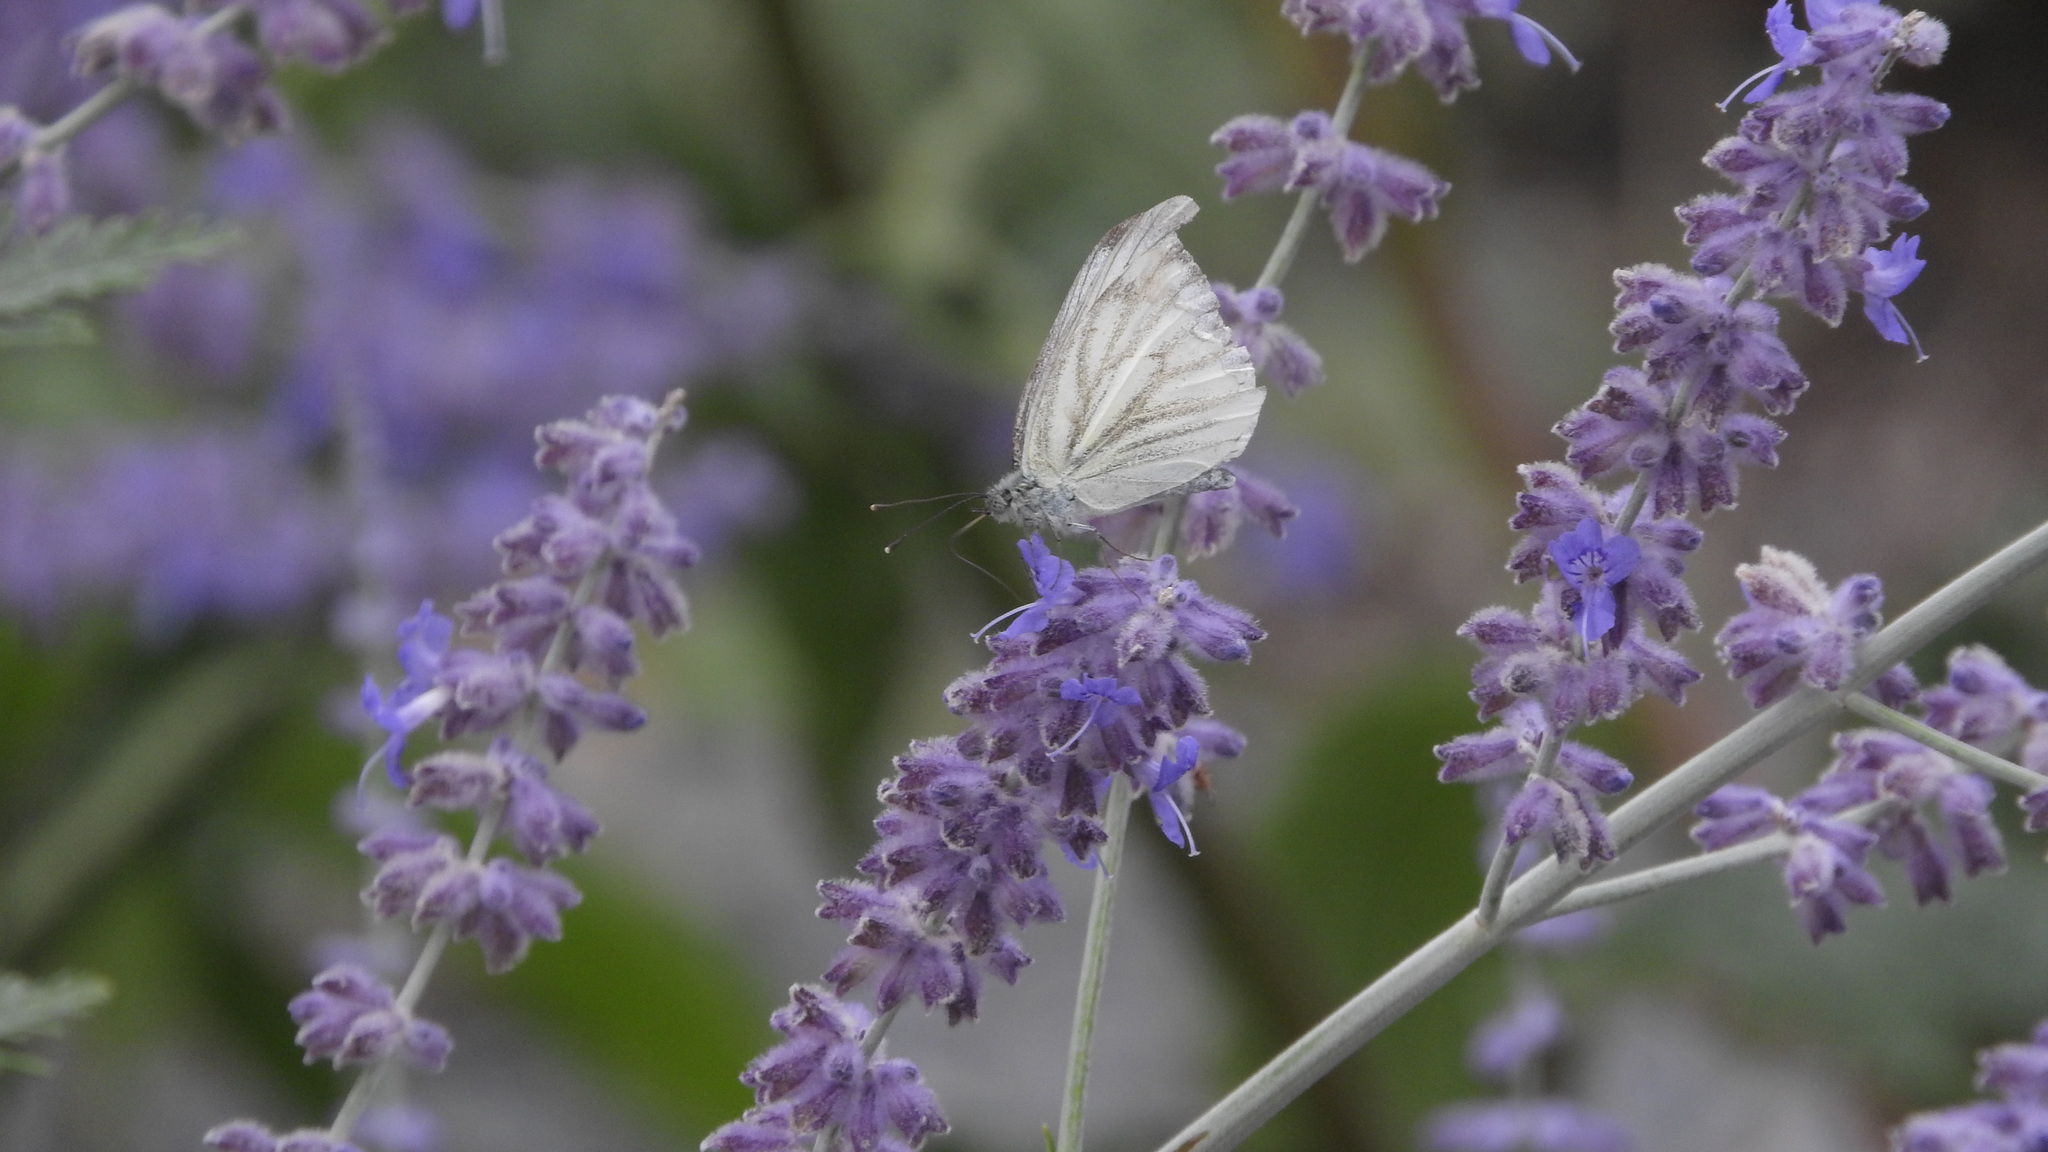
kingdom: Animalia
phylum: Arthropoda
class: Insecta
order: Lepidoptera
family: Pieridae
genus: Pieris
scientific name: Pieris napi
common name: Green-veined white
